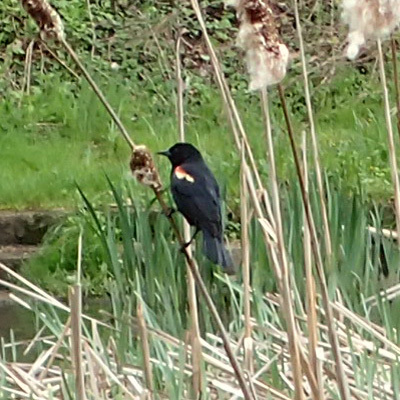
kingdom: Animalia
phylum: Chordata
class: Aves
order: Passeriformes
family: Icteridae
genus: Agelaius
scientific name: Agelaius phoeniceus
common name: Red-winged blackbird
